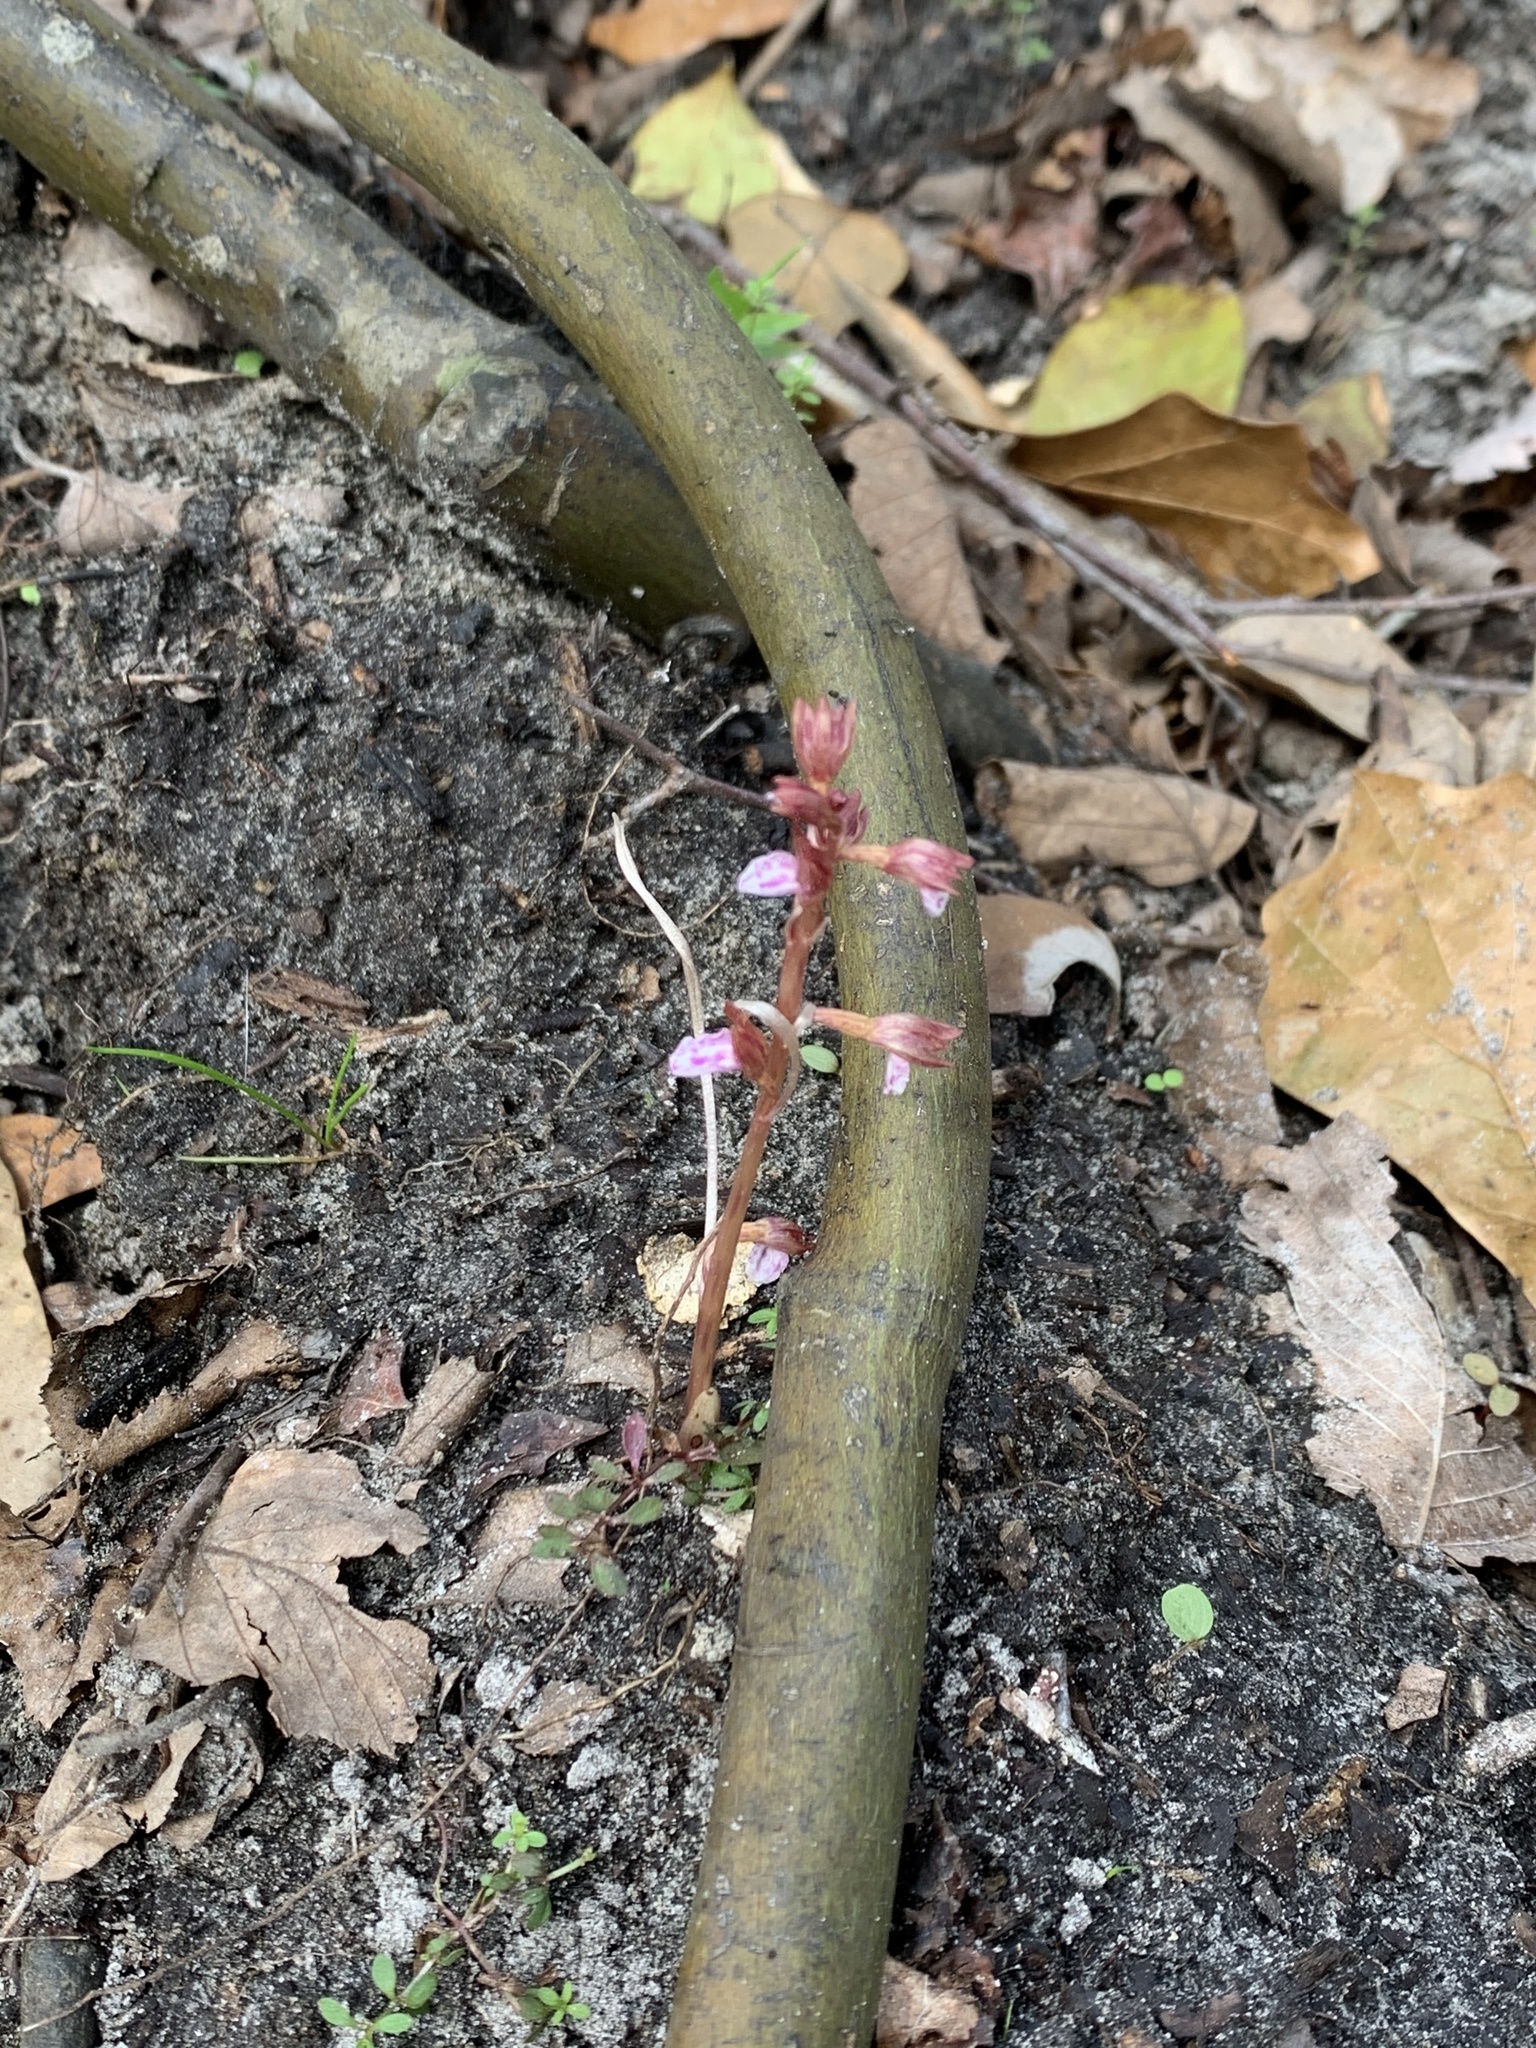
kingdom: Plantae
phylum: Tracheophyta
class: Liliopsida
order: Asparagales
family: Orchidaceae
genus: Corallorhiza
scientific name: Corallorhiza wisteriana
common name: Spring coralroot
